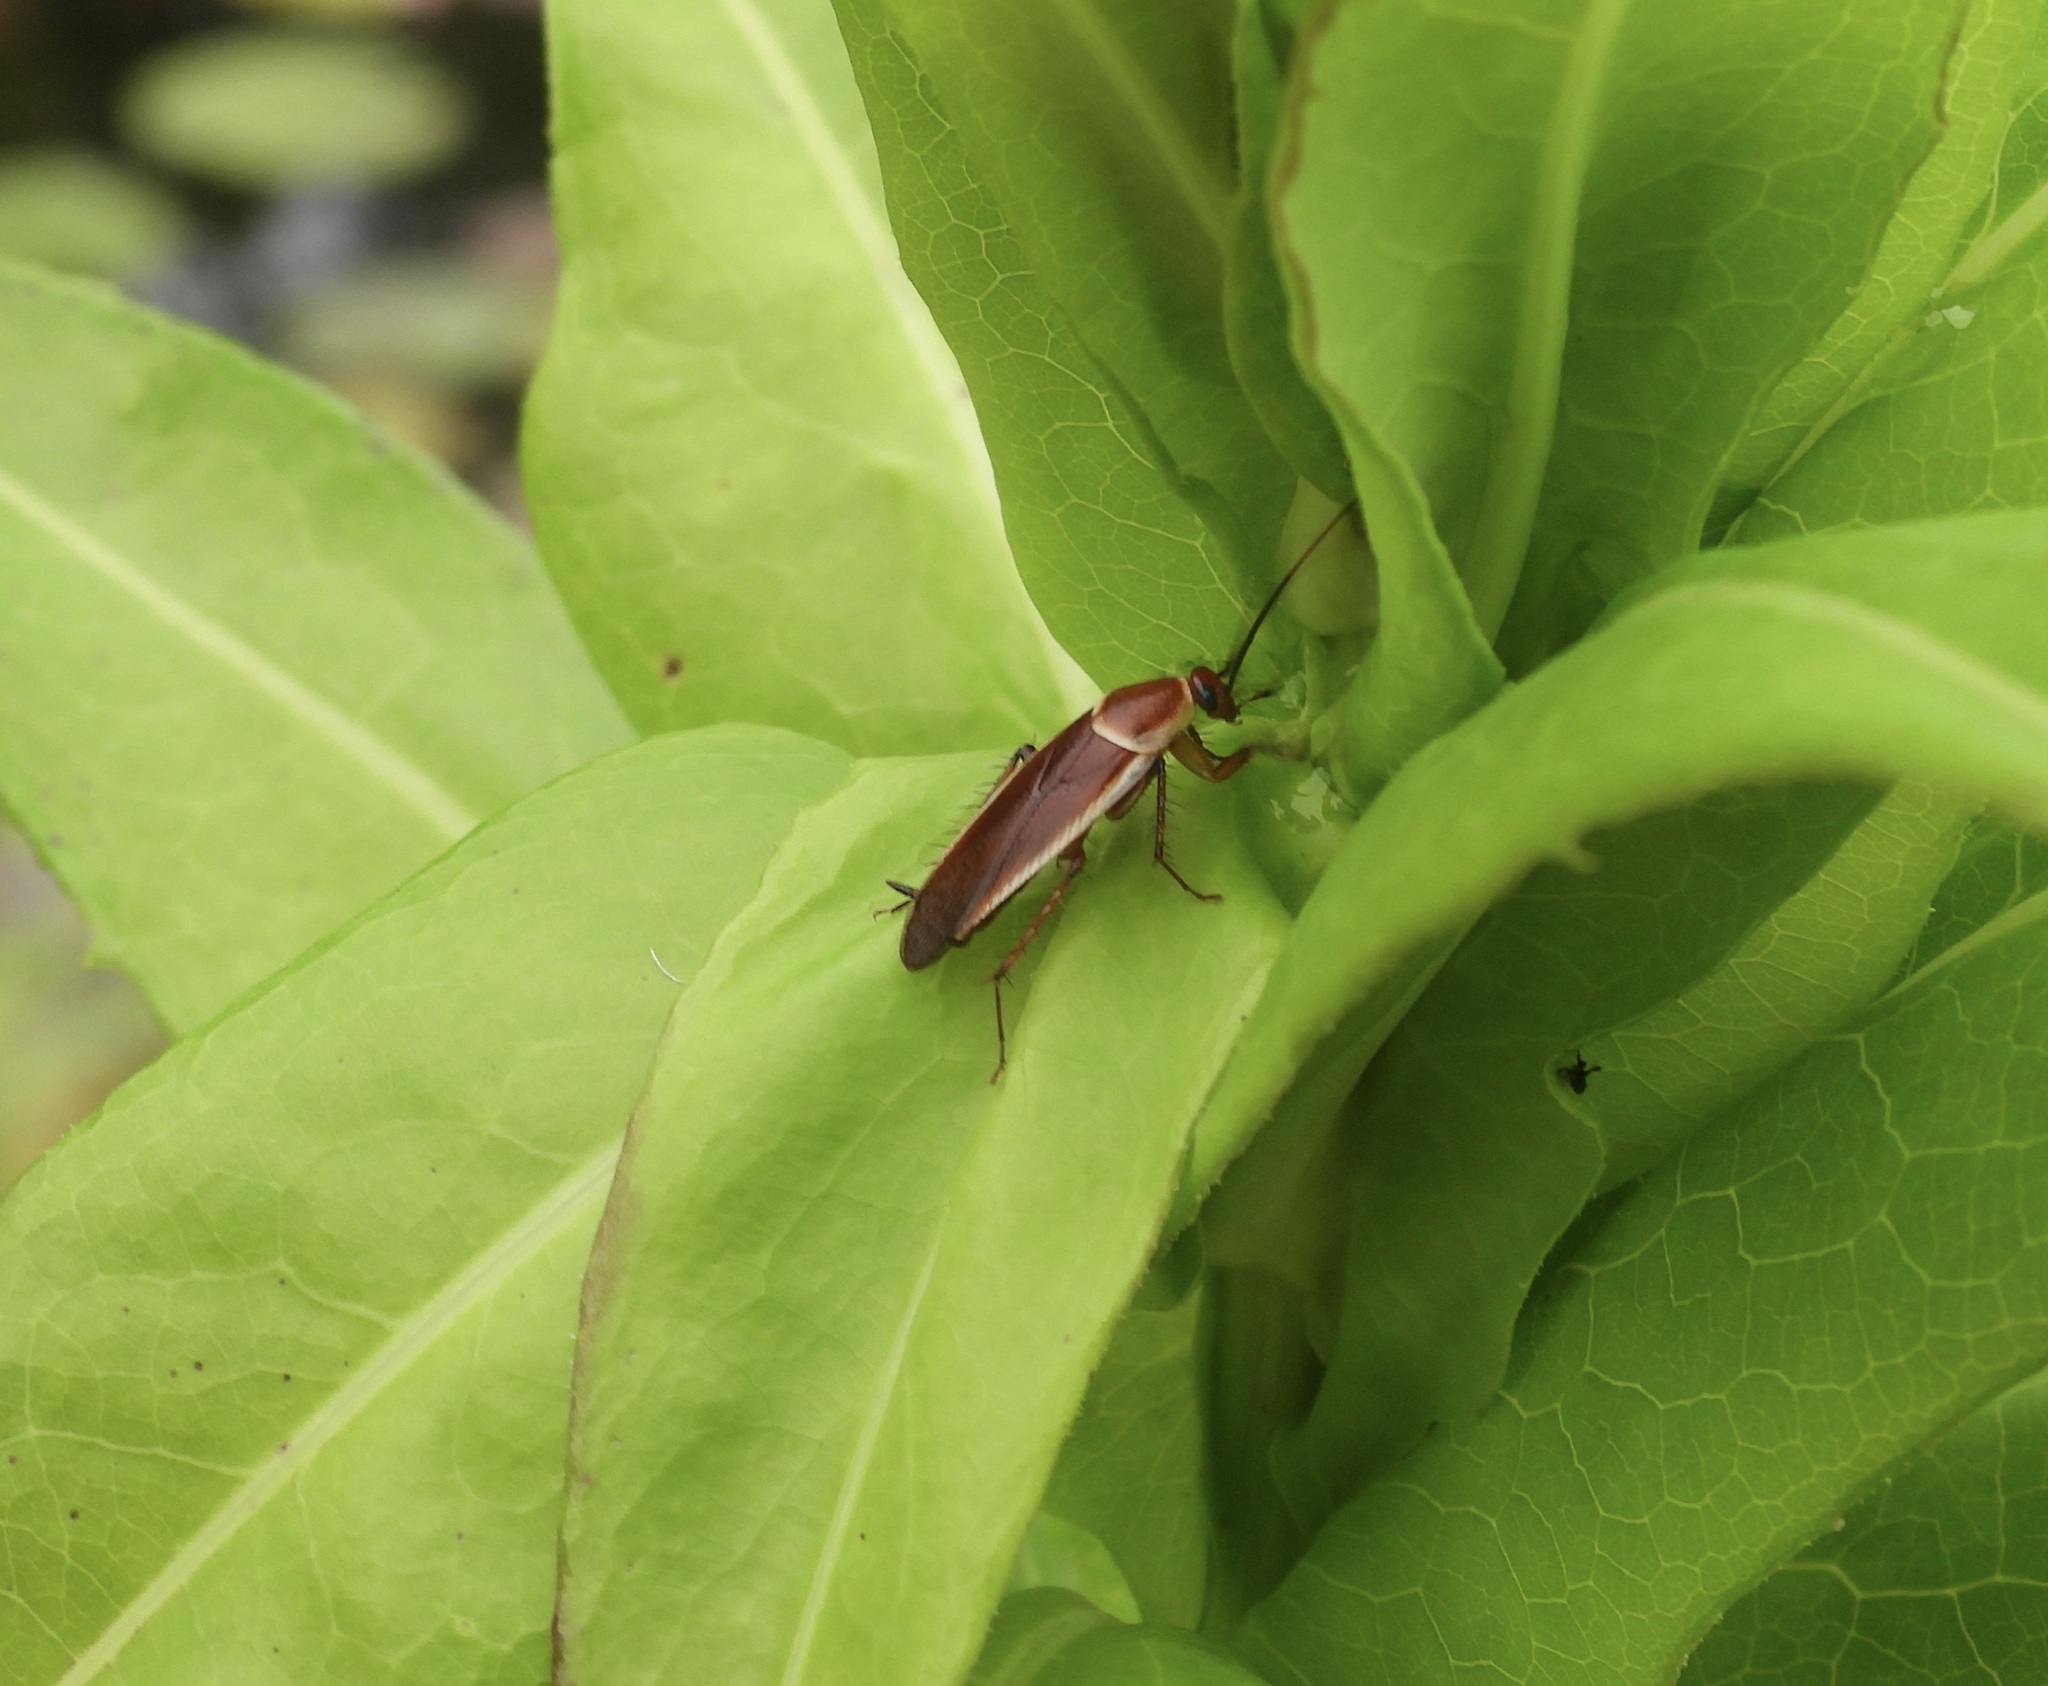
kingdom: Animalia
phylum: Arthropoda
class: Insecta
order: Blattodea
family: Ectobiidae
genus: Pseudomops
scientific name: Pseudomops septentrionalis
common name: Pale-bordered field cockroach
